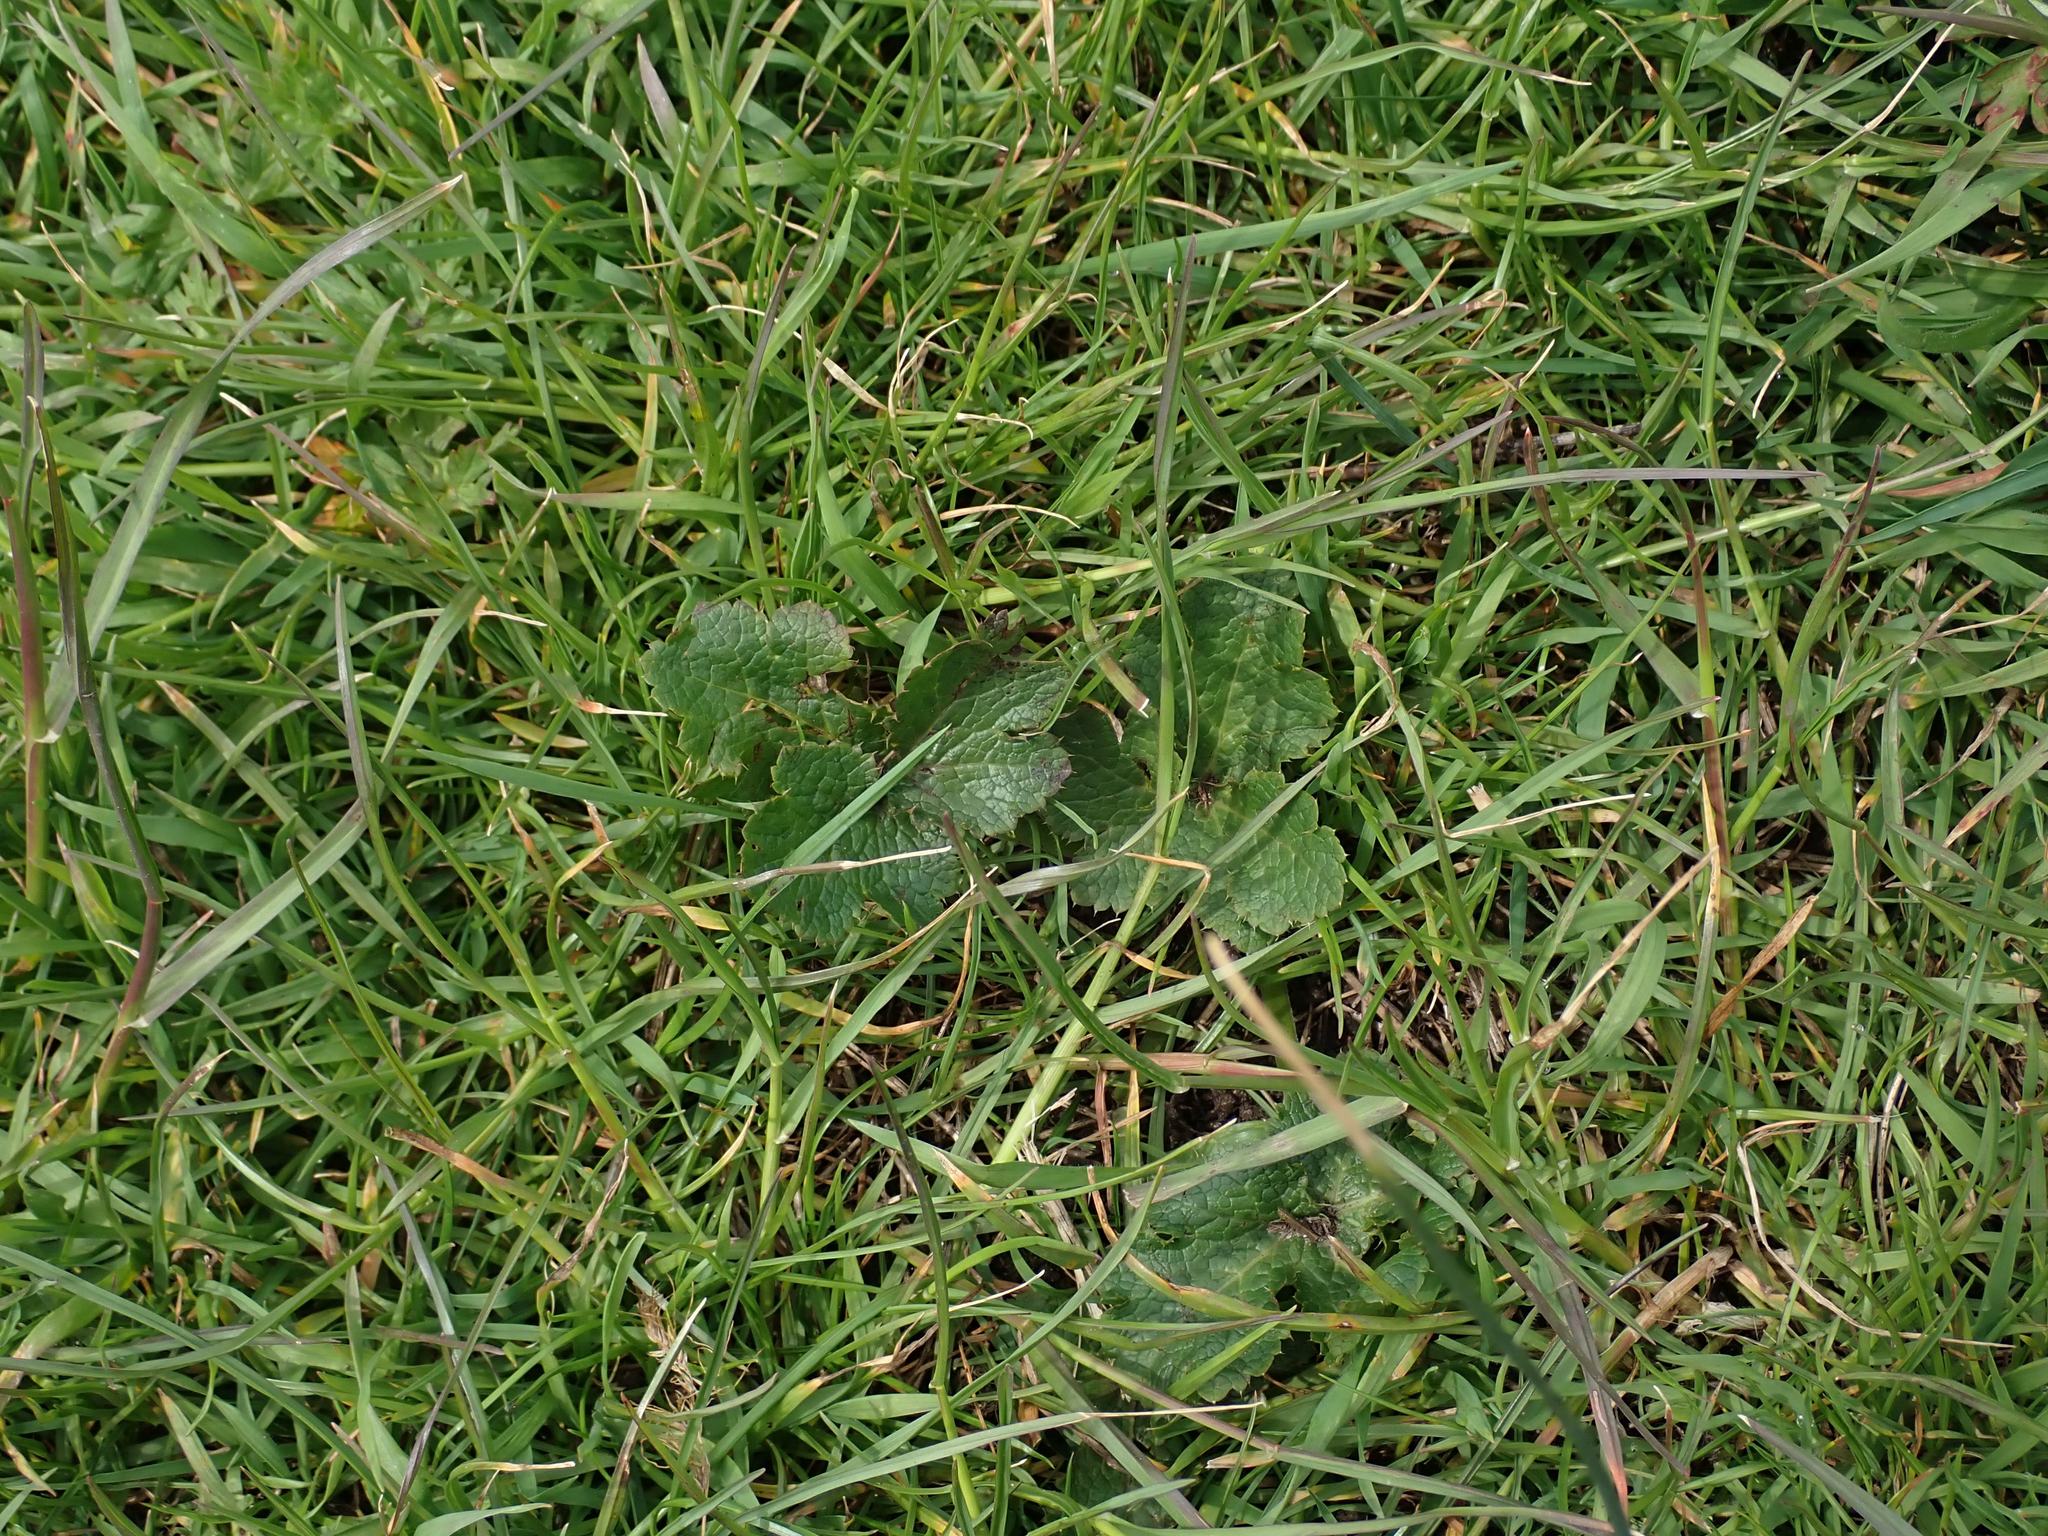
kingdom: Plantae
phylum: Tracheophyta
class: Magnoliopsida
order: Apiales
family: Apiaceae
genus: Sanicula
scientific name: Sanicula crassicaulis
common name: Western snakeroot
